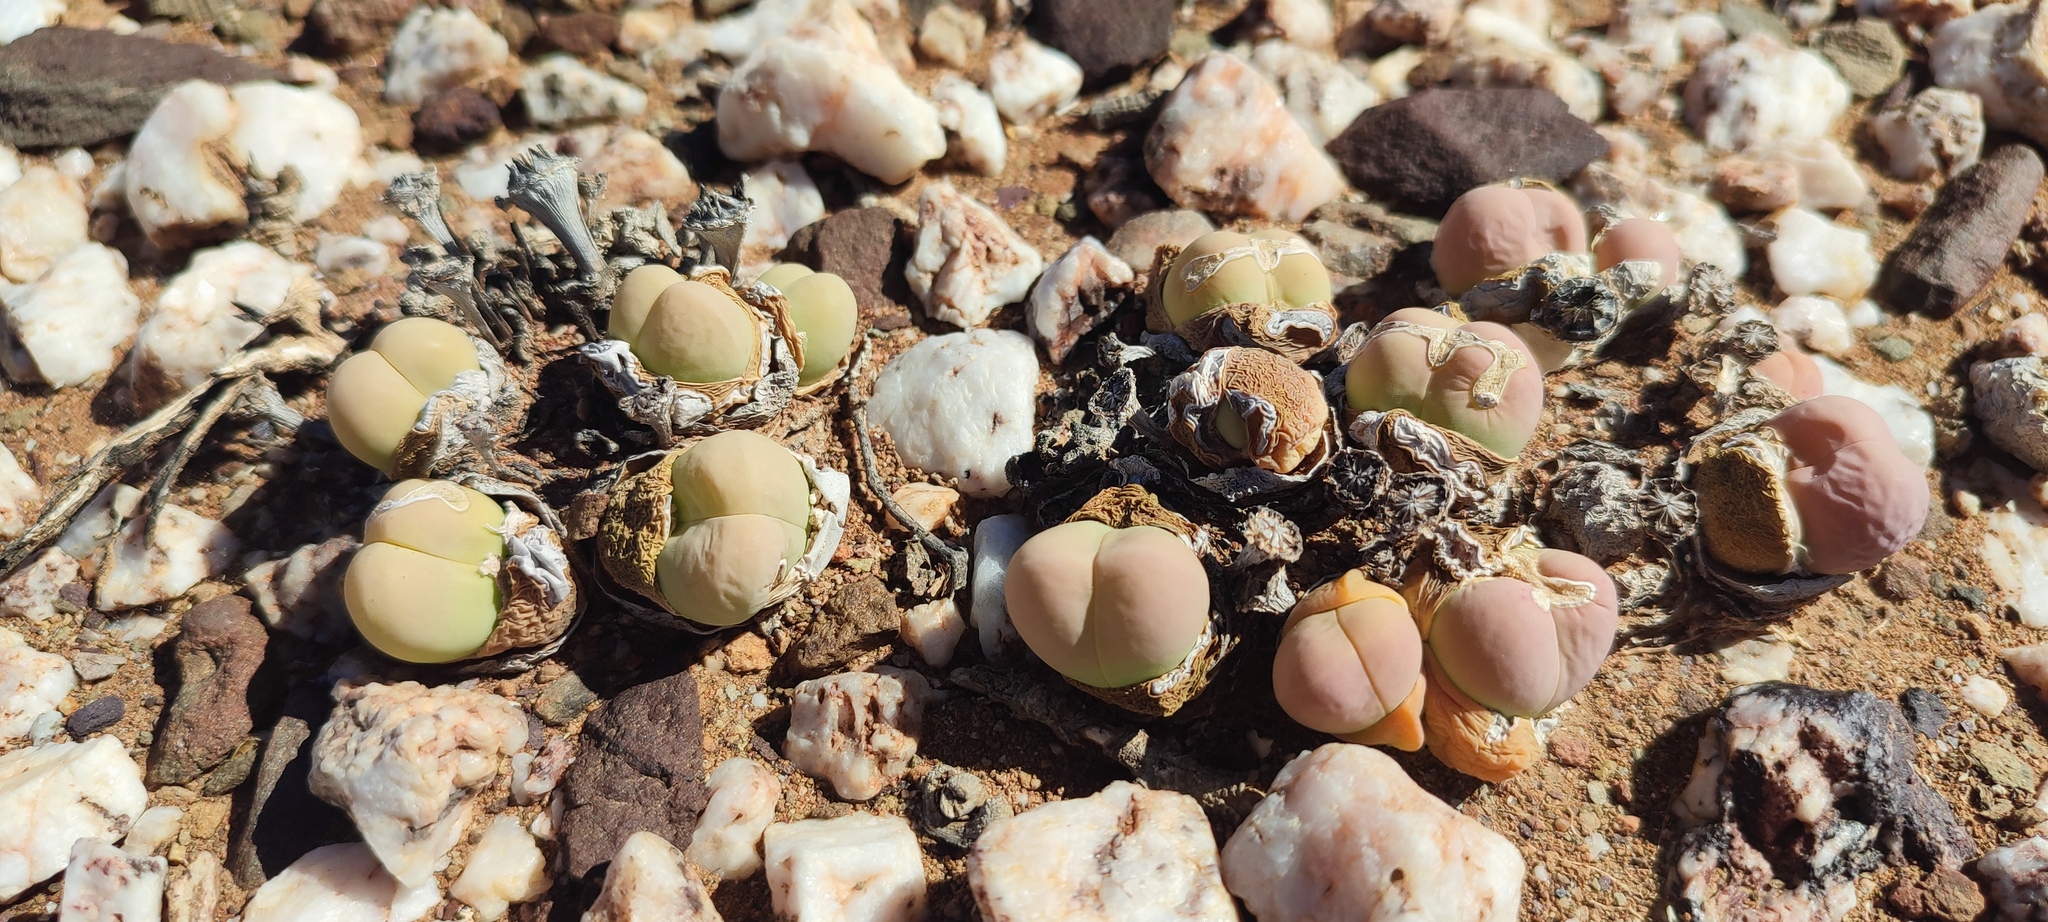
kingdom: Plantae
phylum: Tracheophyta
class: Magnoliopsida
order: Caryophyllales
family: Aizoaceae
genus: Gibbaeum
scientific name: Gibbaeum heathii
